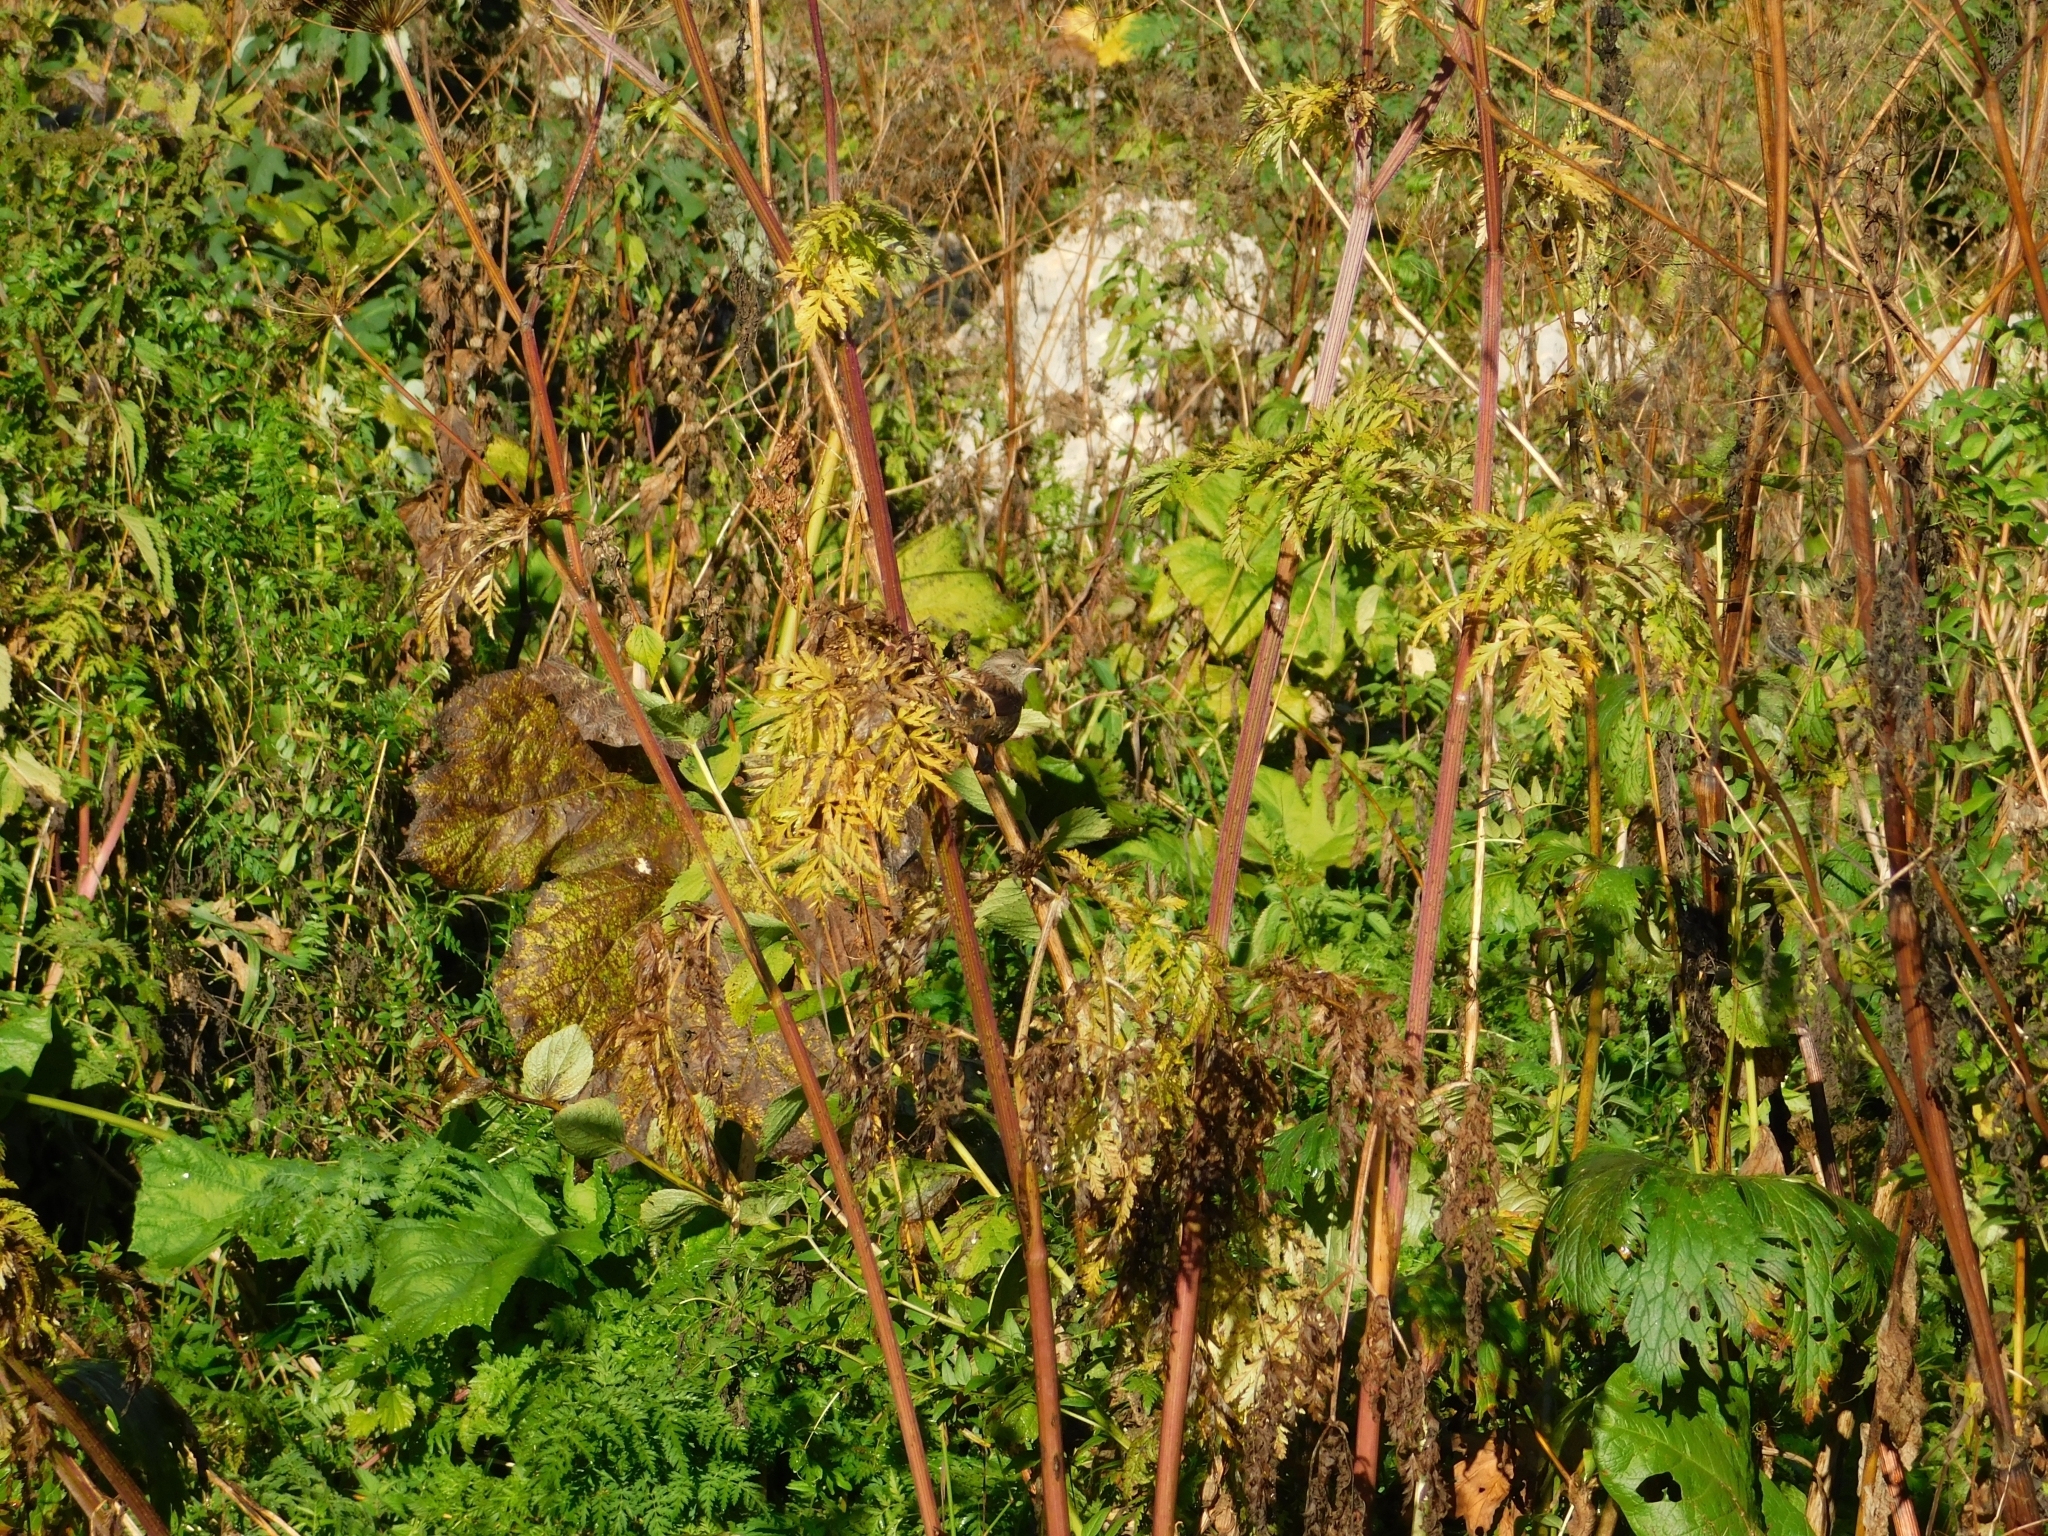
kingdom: Animalia
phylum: Chordata
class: Aves
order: Passeriformes
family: Prunellidae
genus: Prunella
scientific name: Prunella modularis
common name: Dunnock
